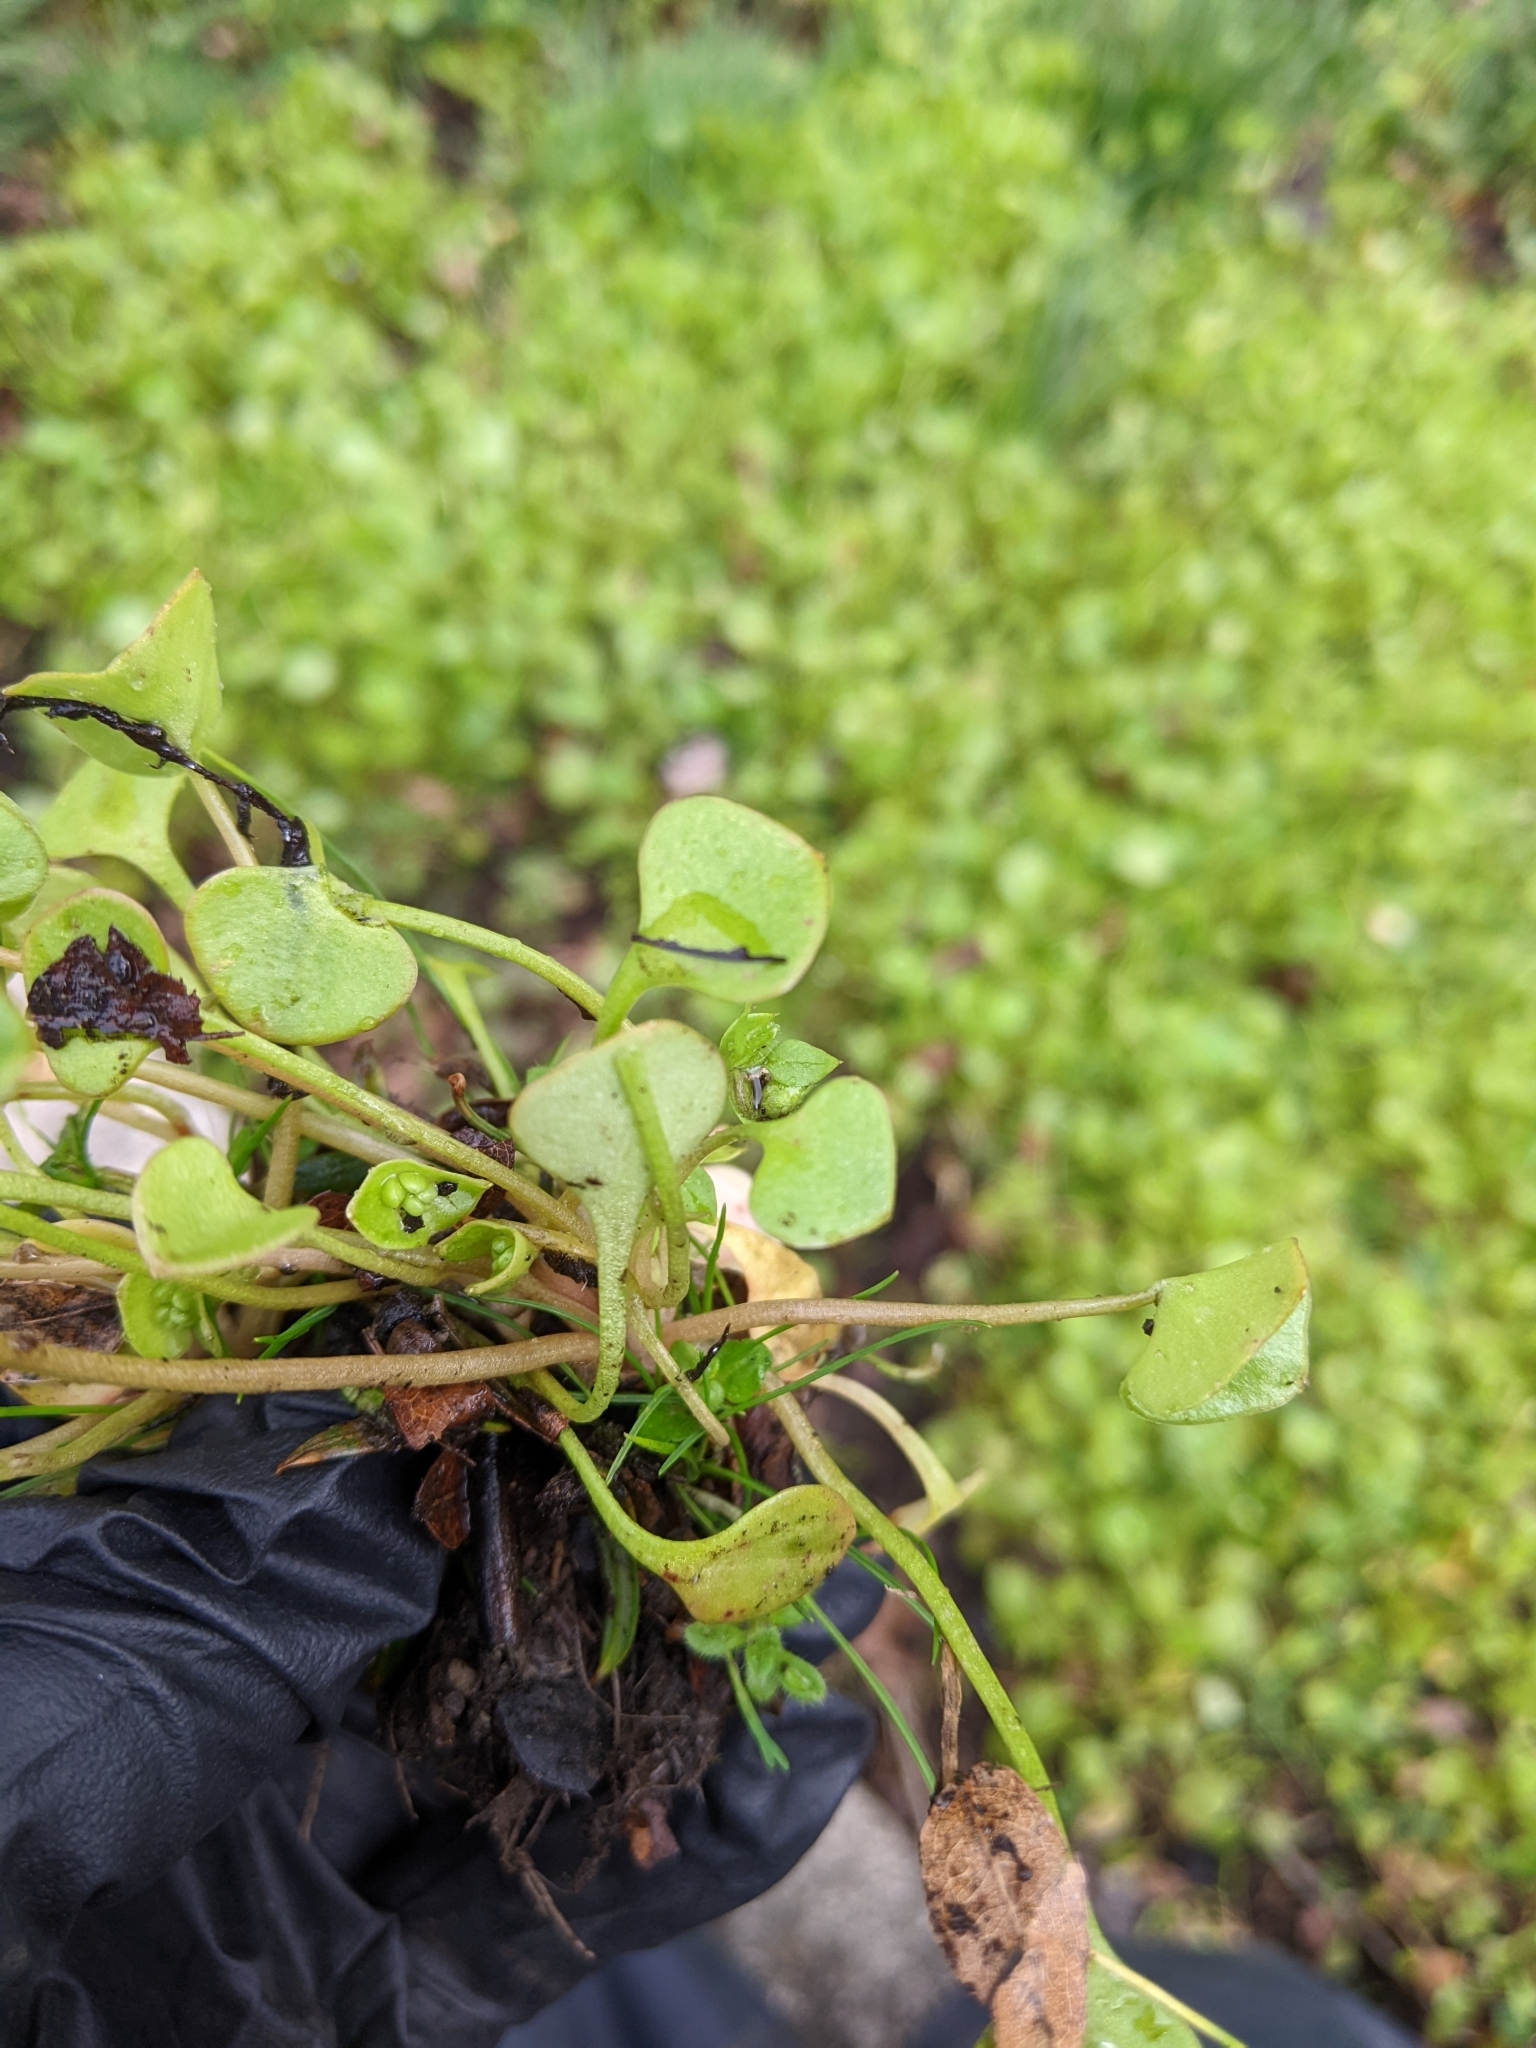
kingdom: Plantae
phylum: Tracheophyta
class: Magnoliopsida
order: Caryophyllales
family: Montiaceae
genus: Claytonia
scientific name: Claytonia perfoliata
